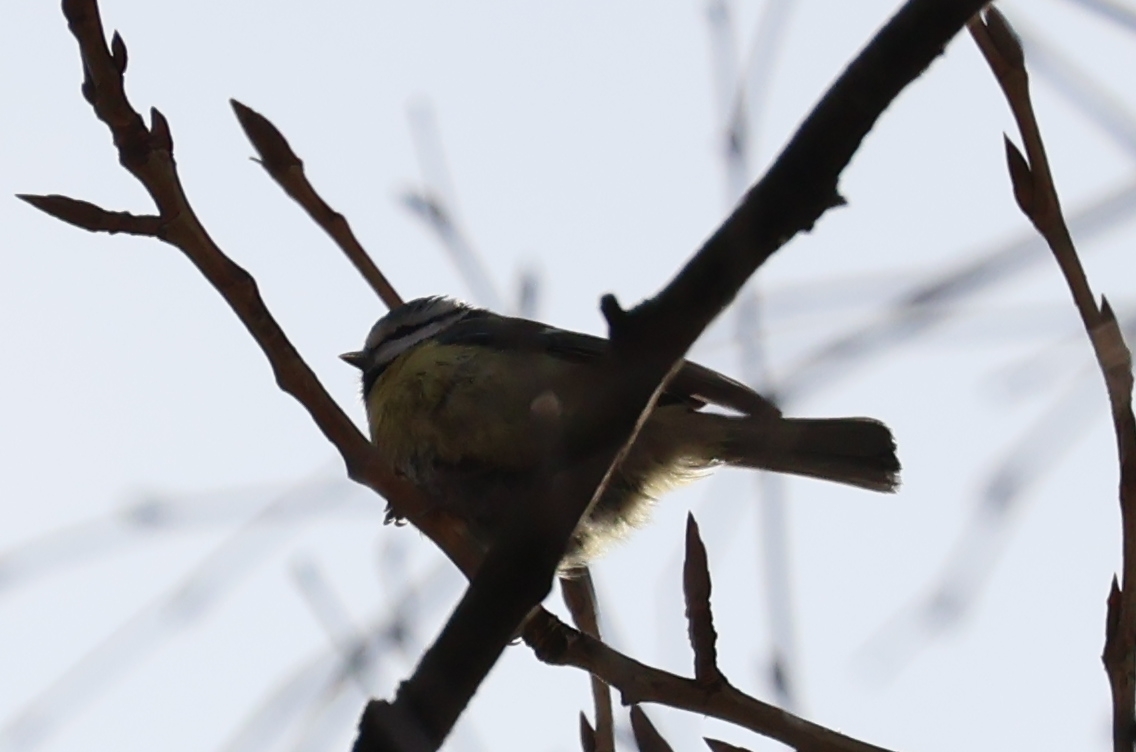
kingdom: Animalia
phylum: Chordata
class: Aves
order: Passeriformes
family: Paridae
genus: Cyanistes
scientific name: Cyanistes caeruleus
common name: Eurasian blue tit
